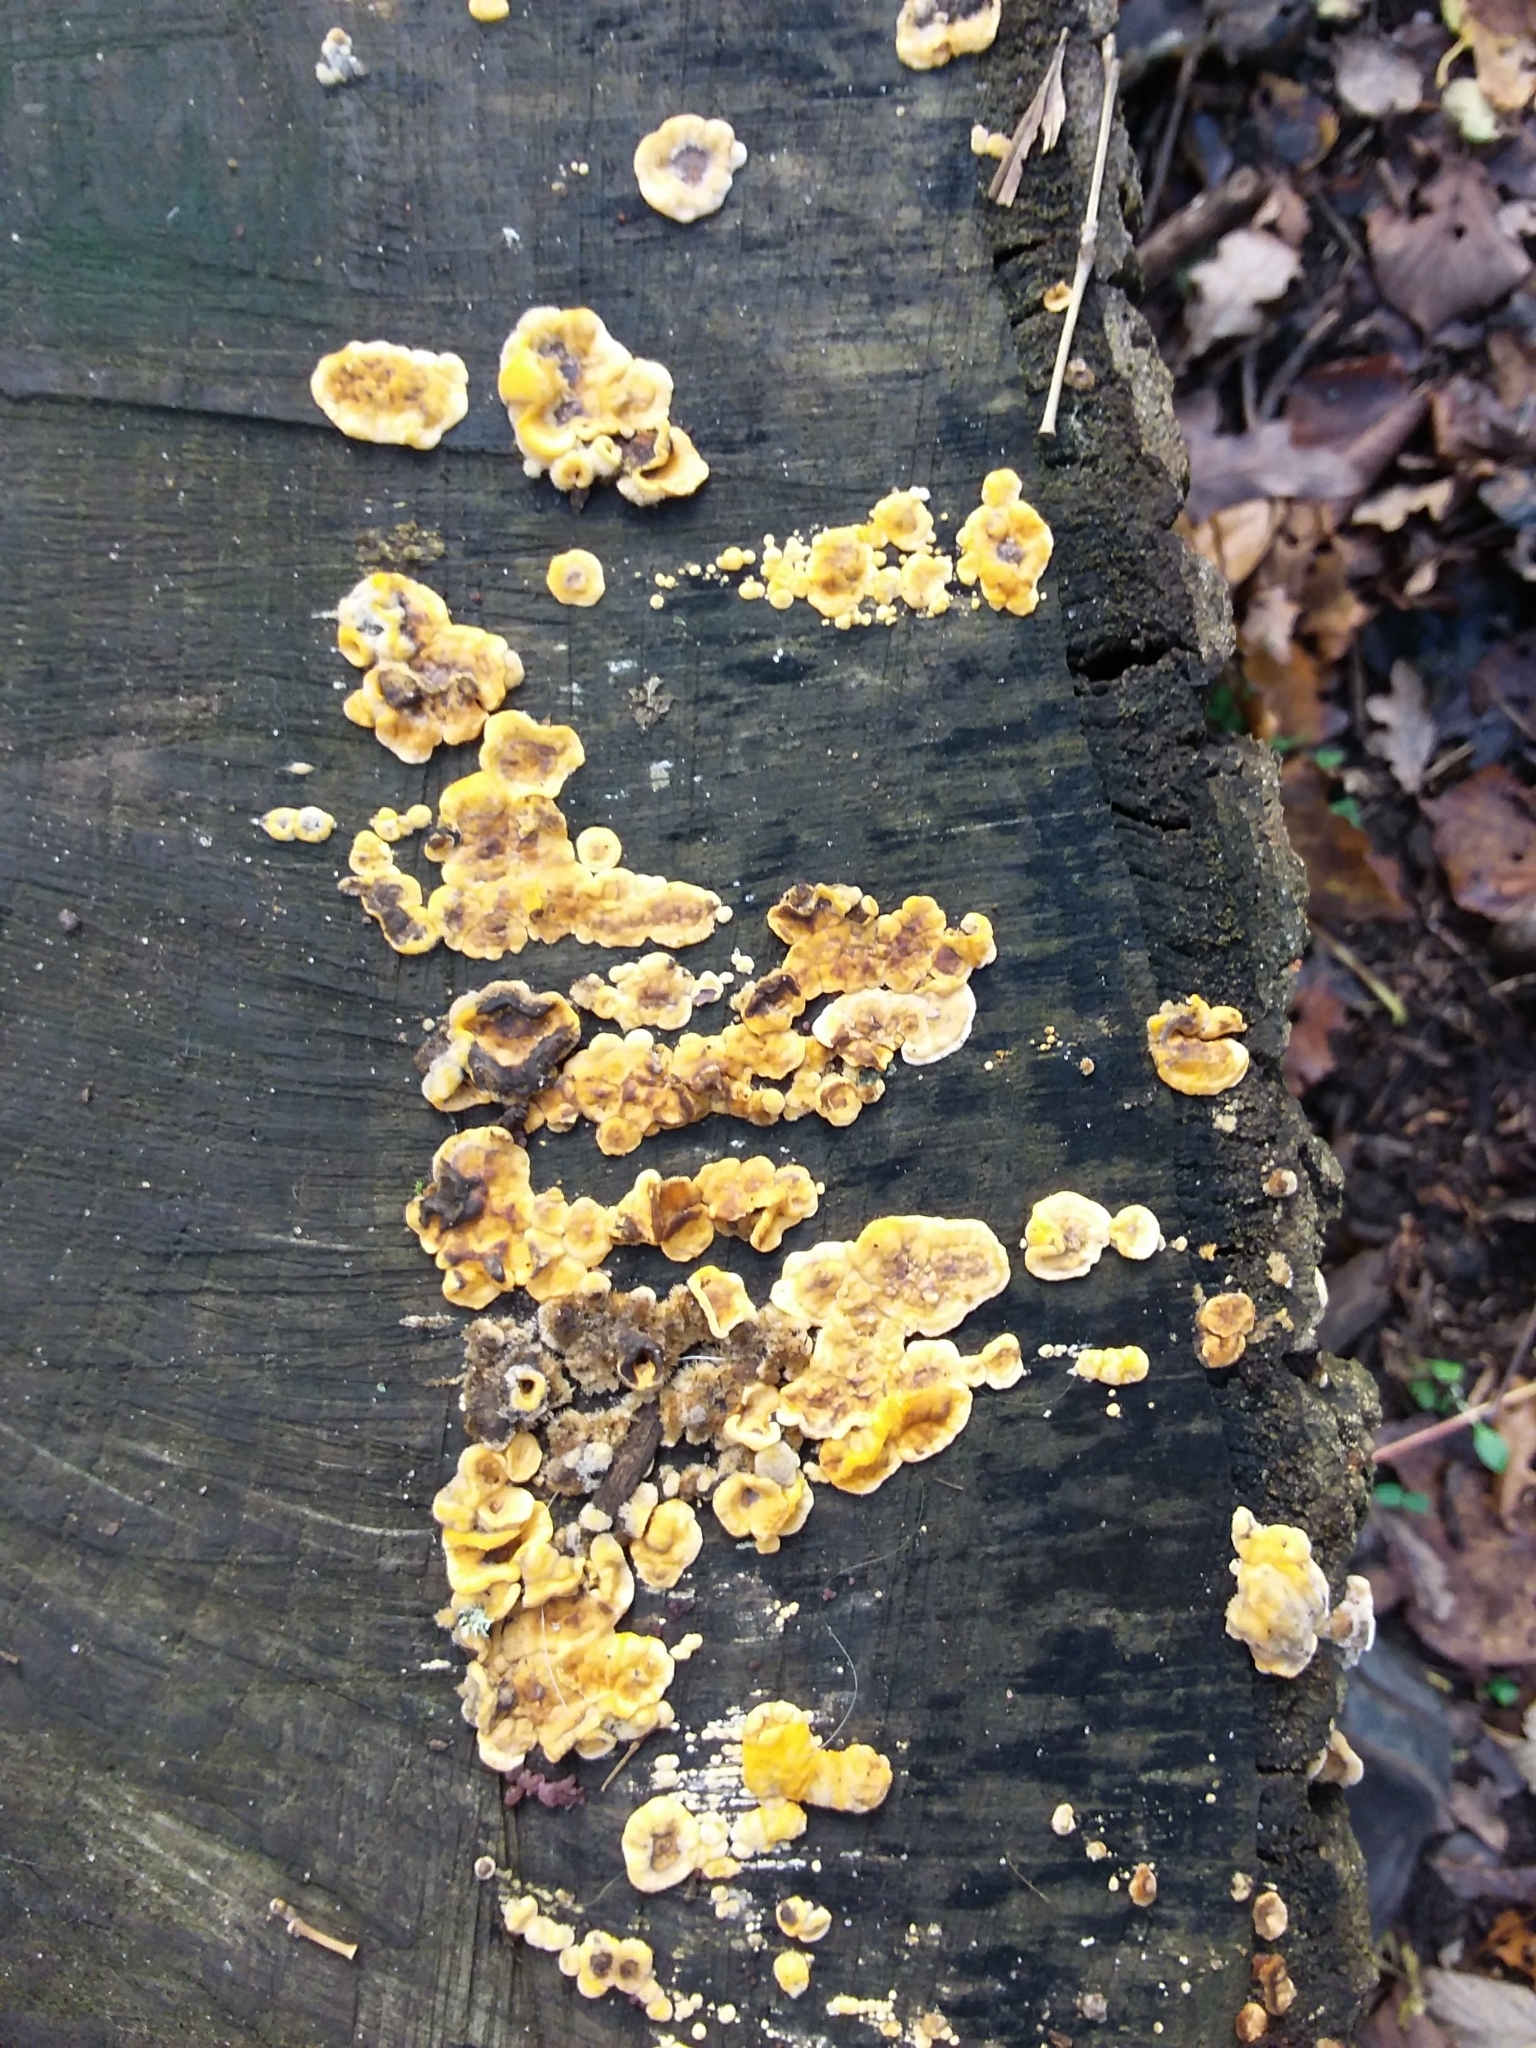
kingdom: Fungi
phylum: Basidiomycota
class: Agaricomycetes
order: Russulales
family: Stereaceae
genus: Stereum
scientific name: Stereum hirsutum
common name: Hairy curtain crust
